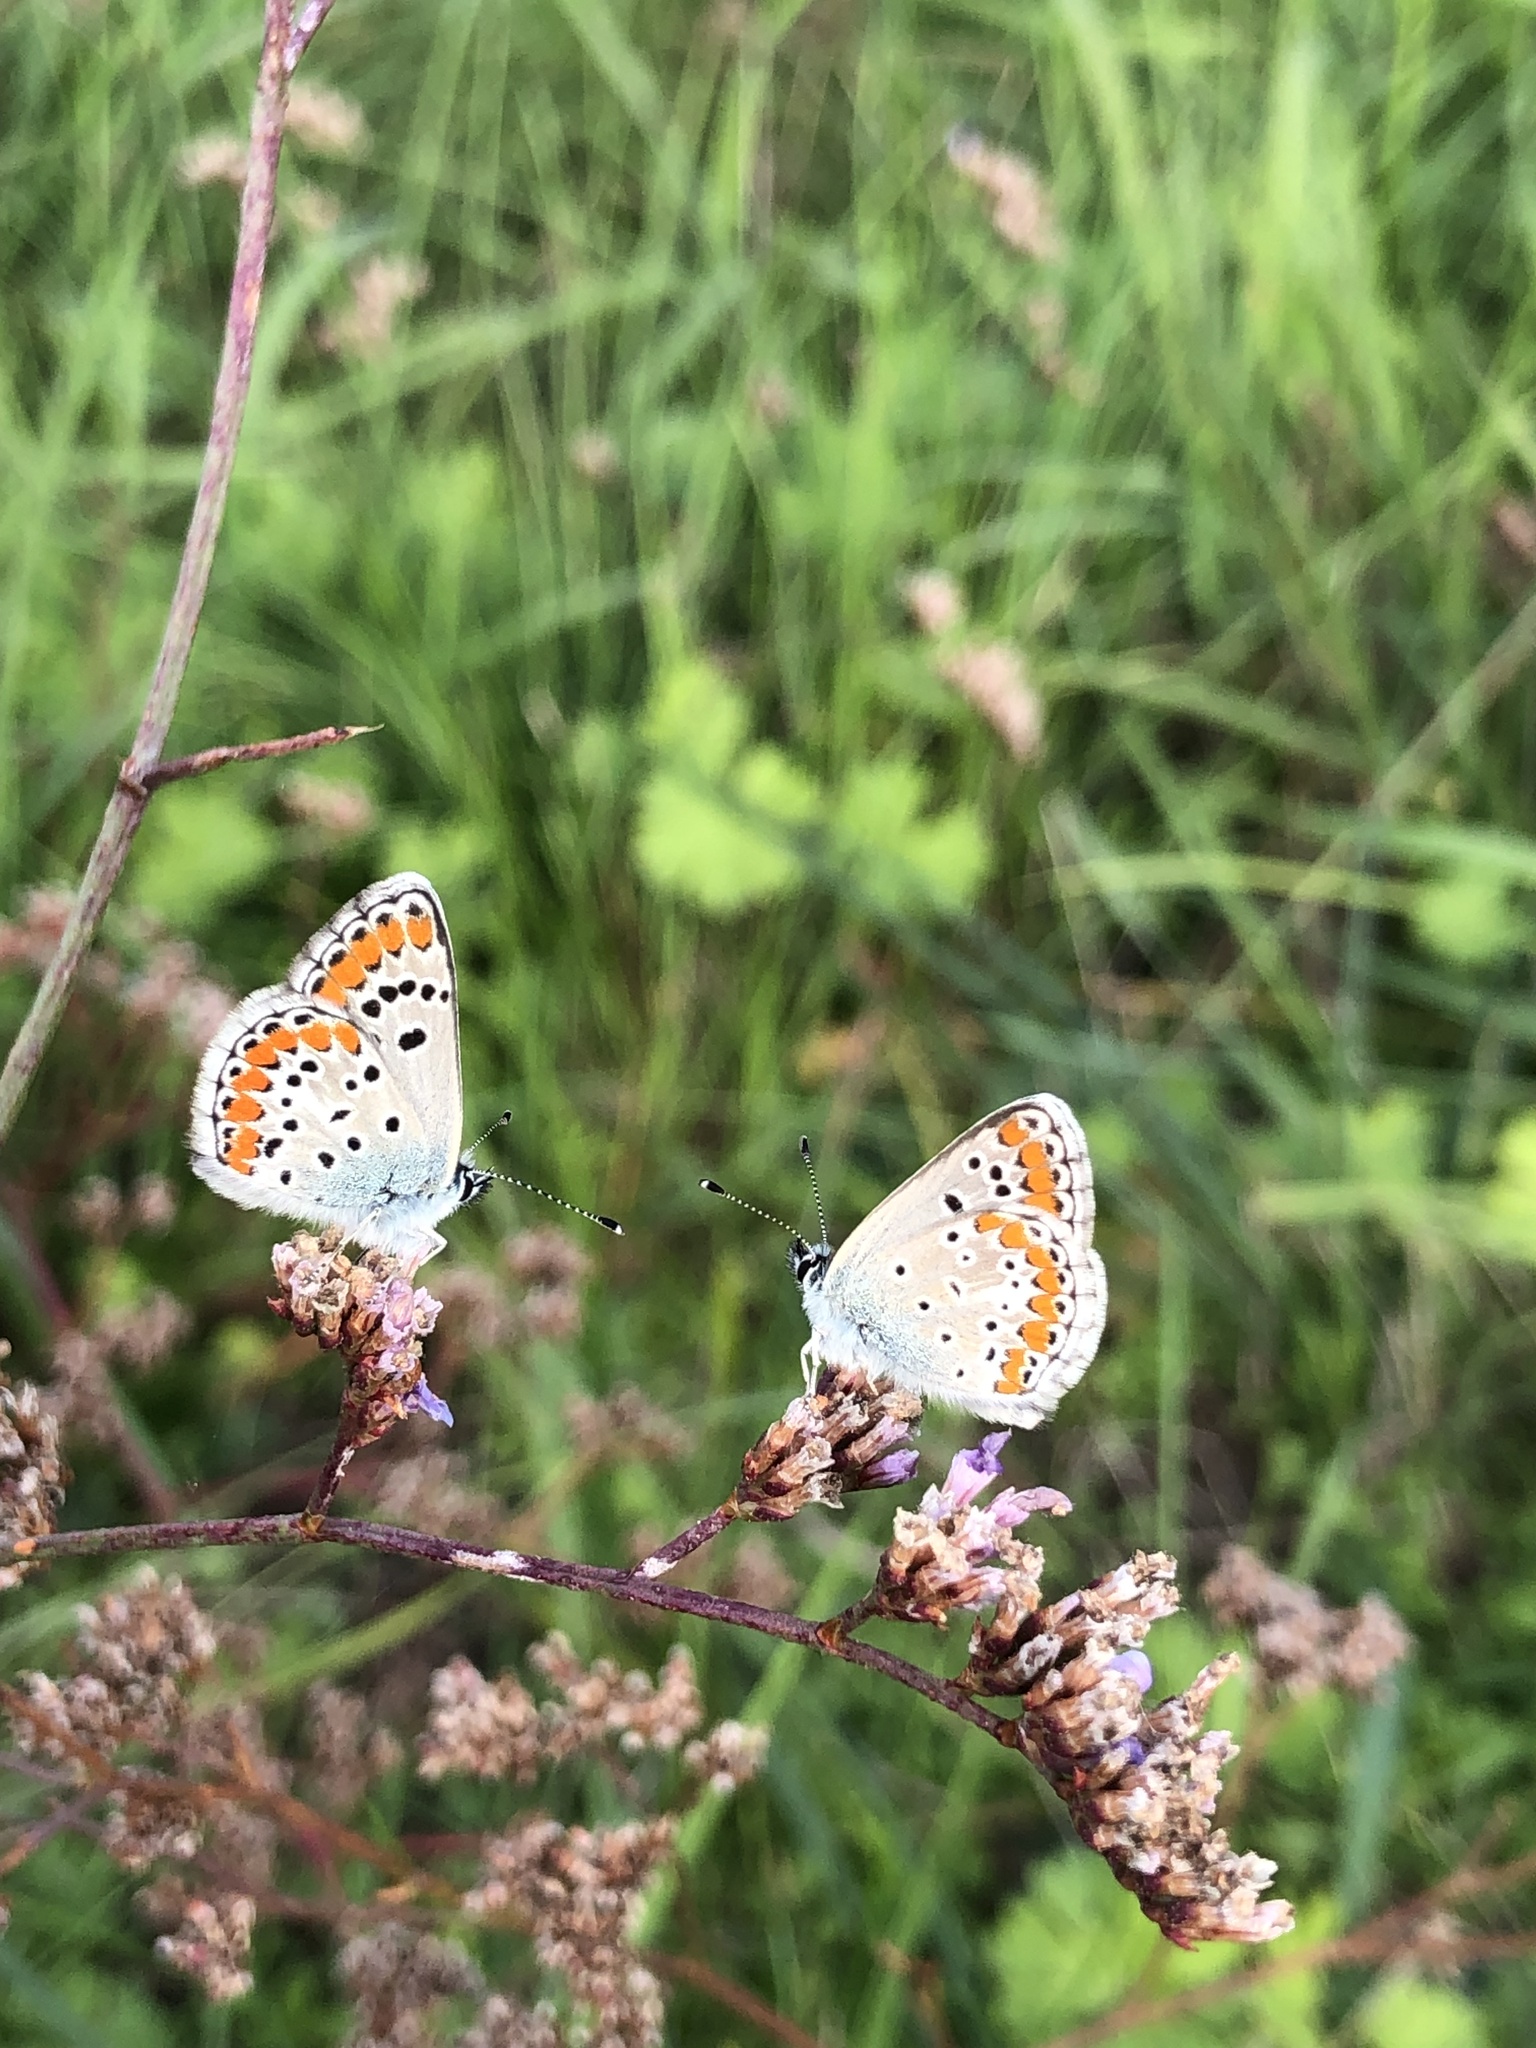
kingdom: Animalia
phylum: Arthropoda
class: Insecta
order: Lepidoptera
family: Lycaenidae
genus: Aricia
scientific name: Aricia agestis
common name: Brown argus
